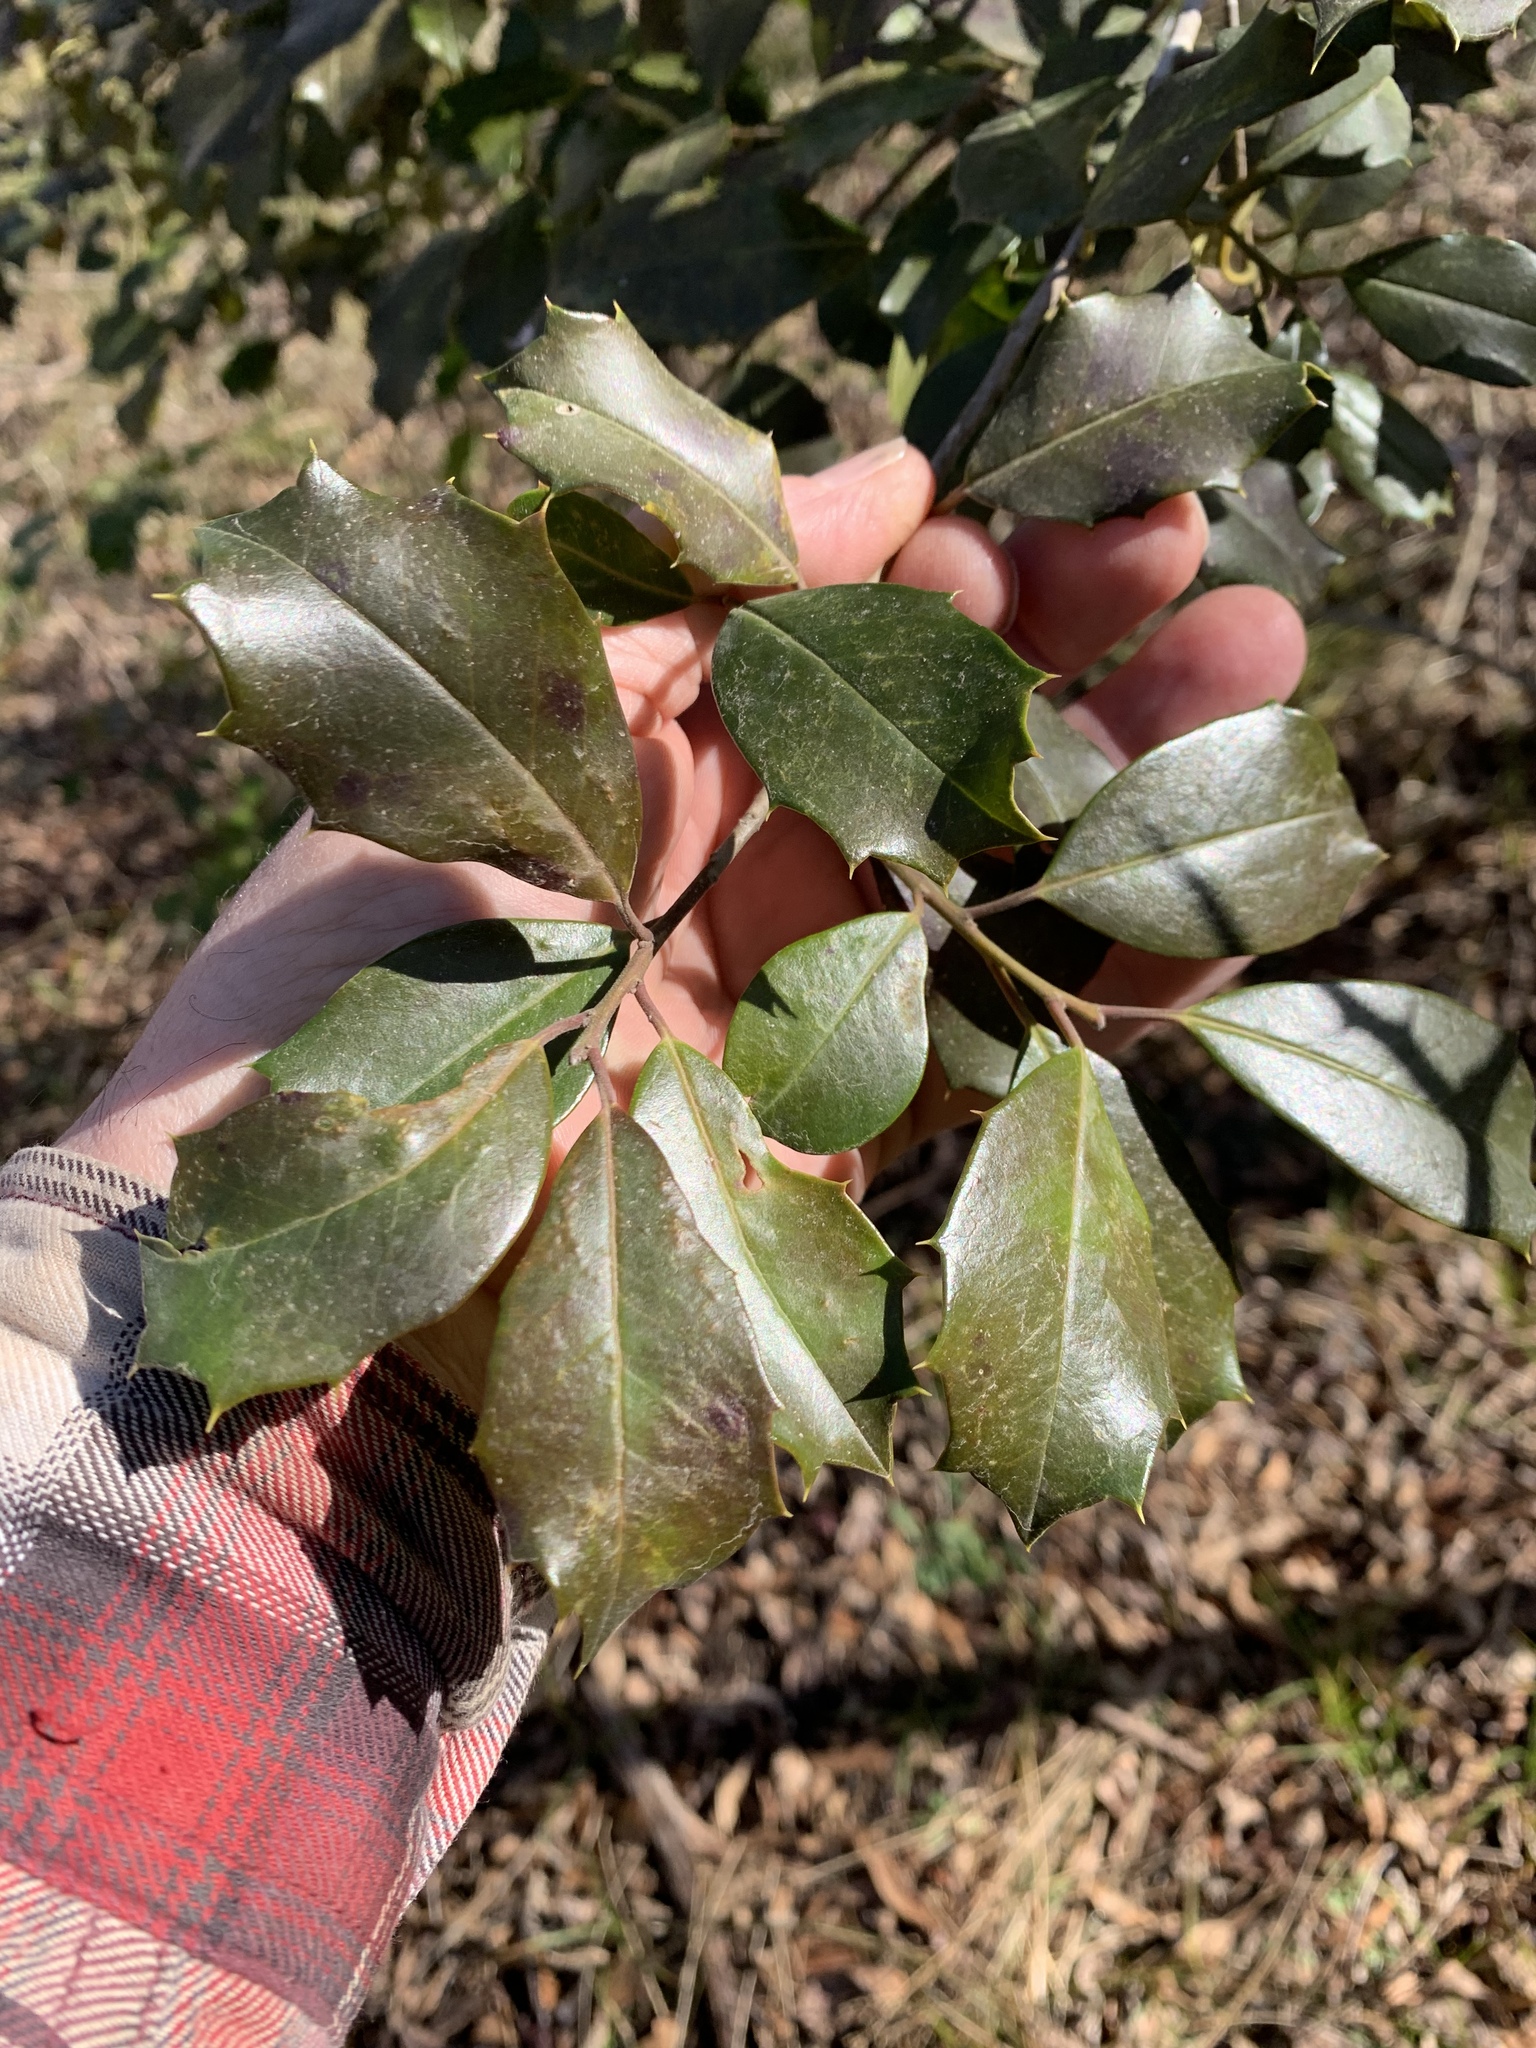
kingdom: Plantae
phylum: Tracheophyta
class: Magnoliopsida
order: Aquifoliales
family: Aquifoliaceae
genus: Ilex
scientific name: Ilex opaca
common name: American holly
